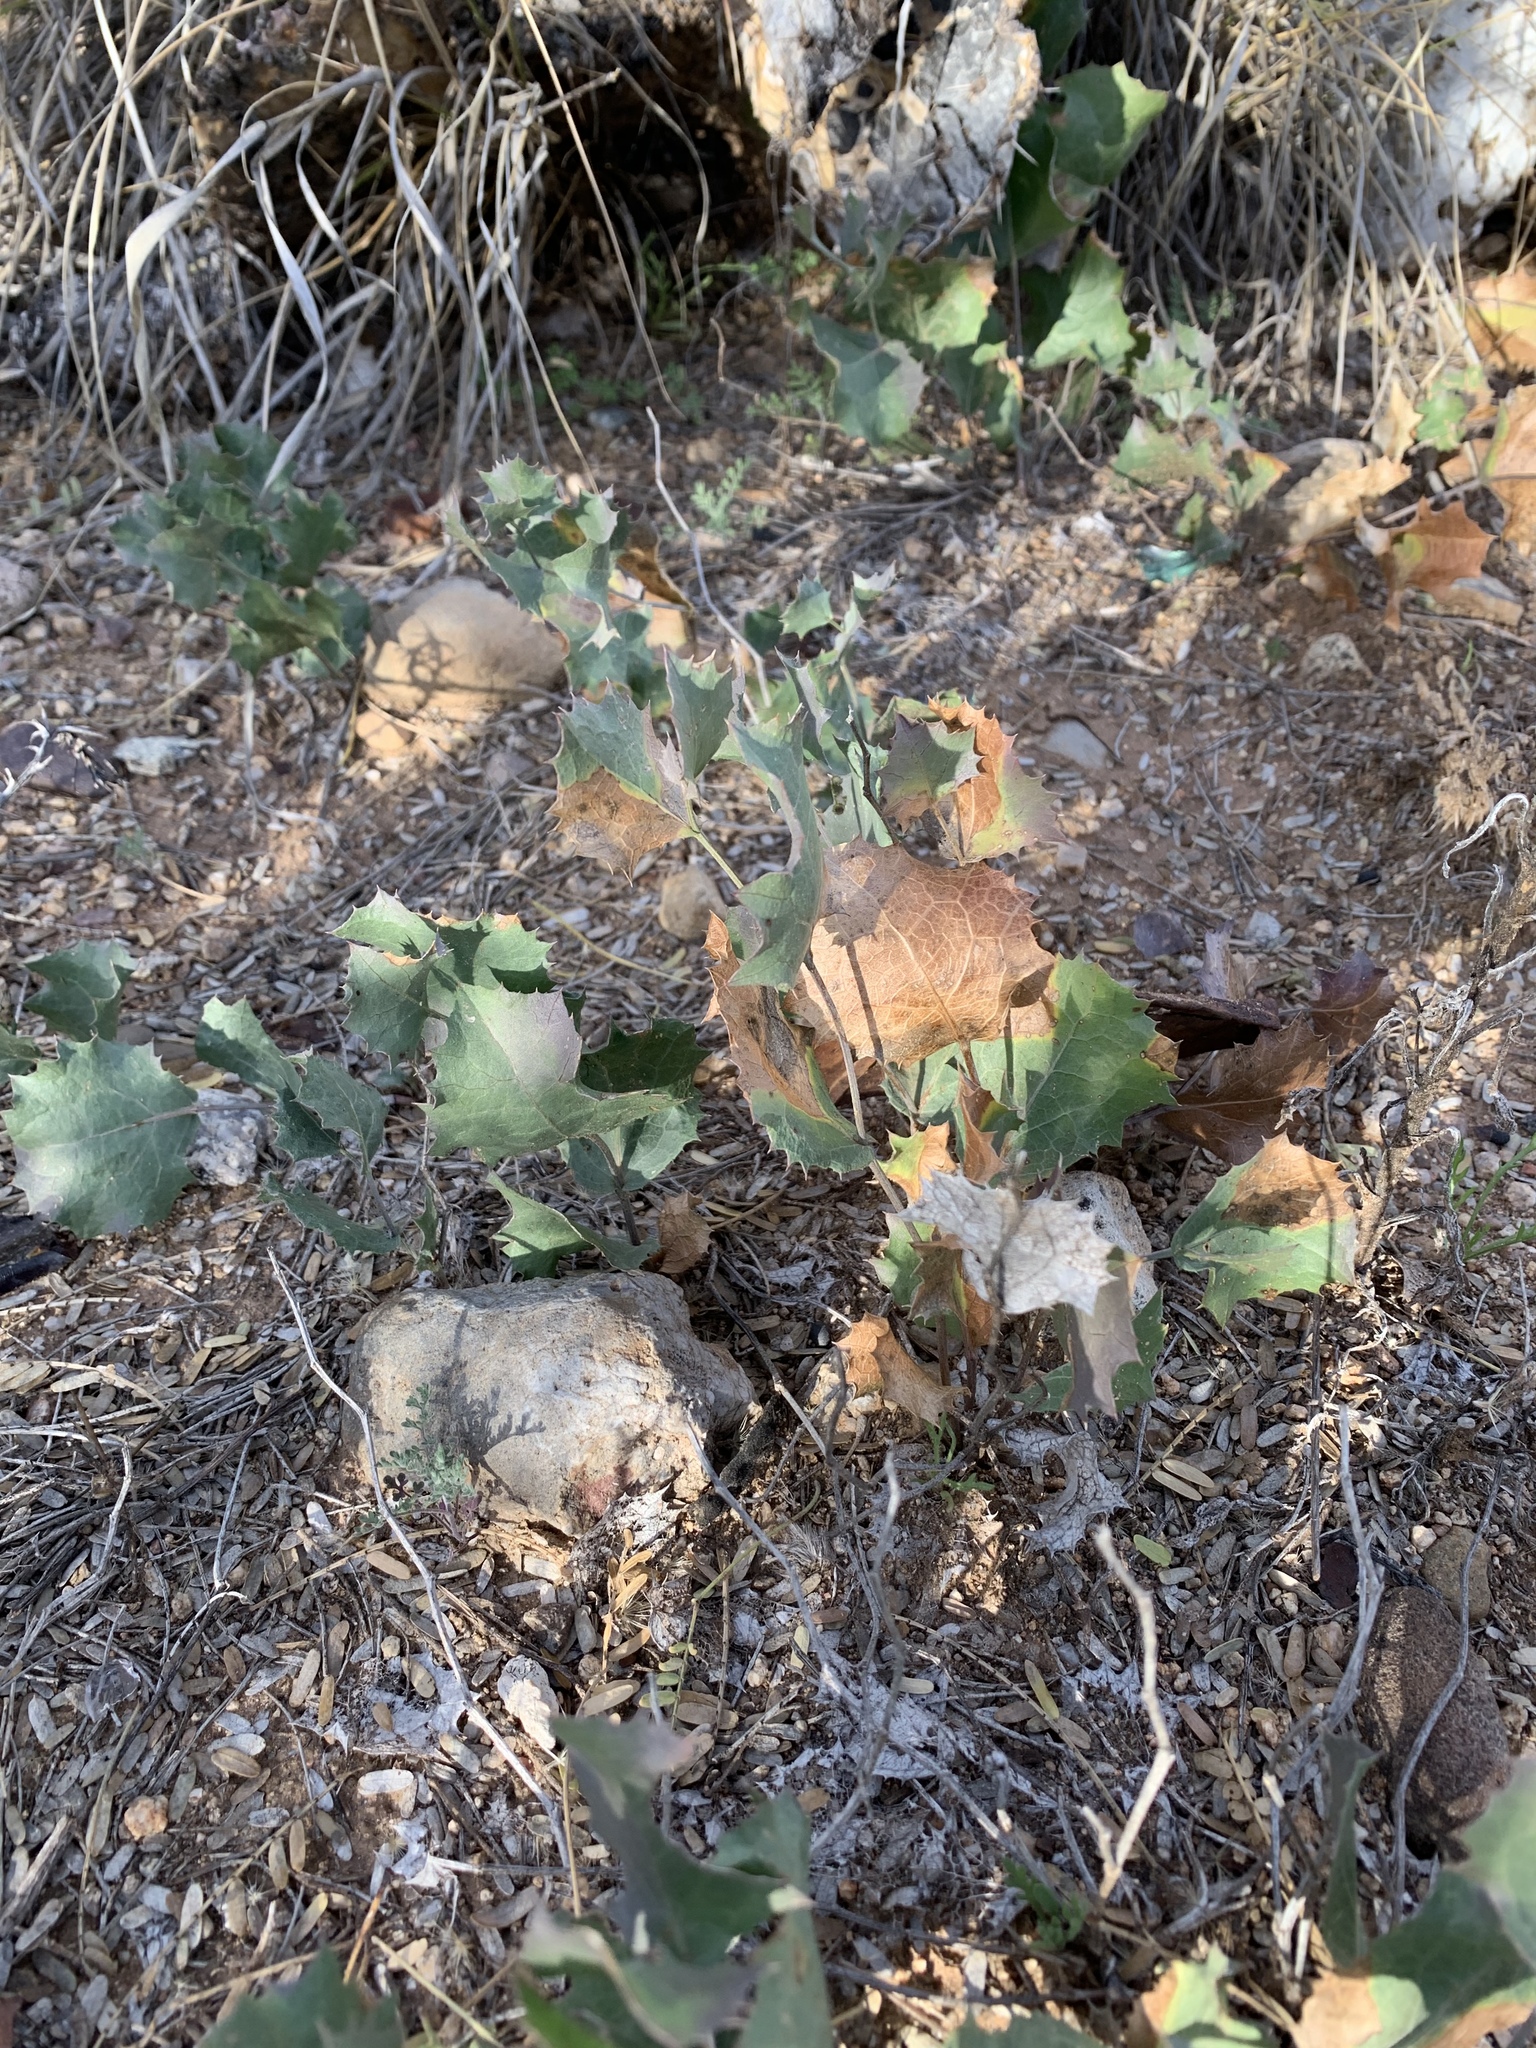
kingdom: Plantae
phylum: Tracheophyta
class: Magnoliopsida
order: Asterales
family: Asteraceae
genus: Acourtia
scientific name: Acourtia nana
